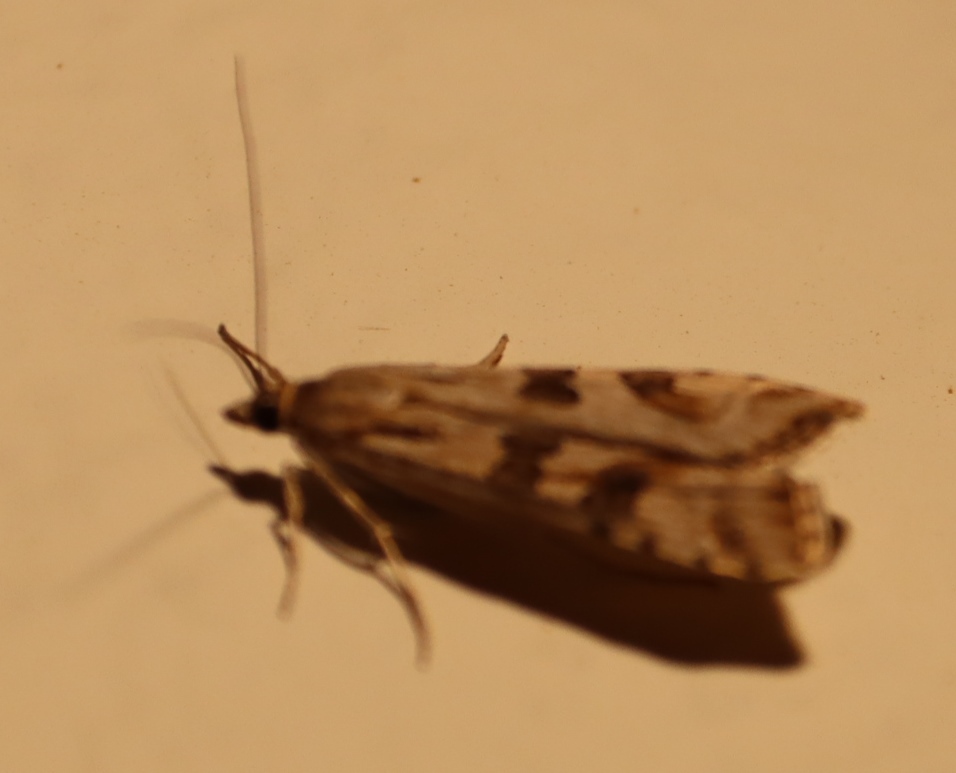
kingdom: Animalia
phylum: Arthropoda
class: Insecta
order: Lepidoptera
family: Crambidae
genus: Nomophila
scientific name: Nomophila noctuella
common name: Rush veneer
